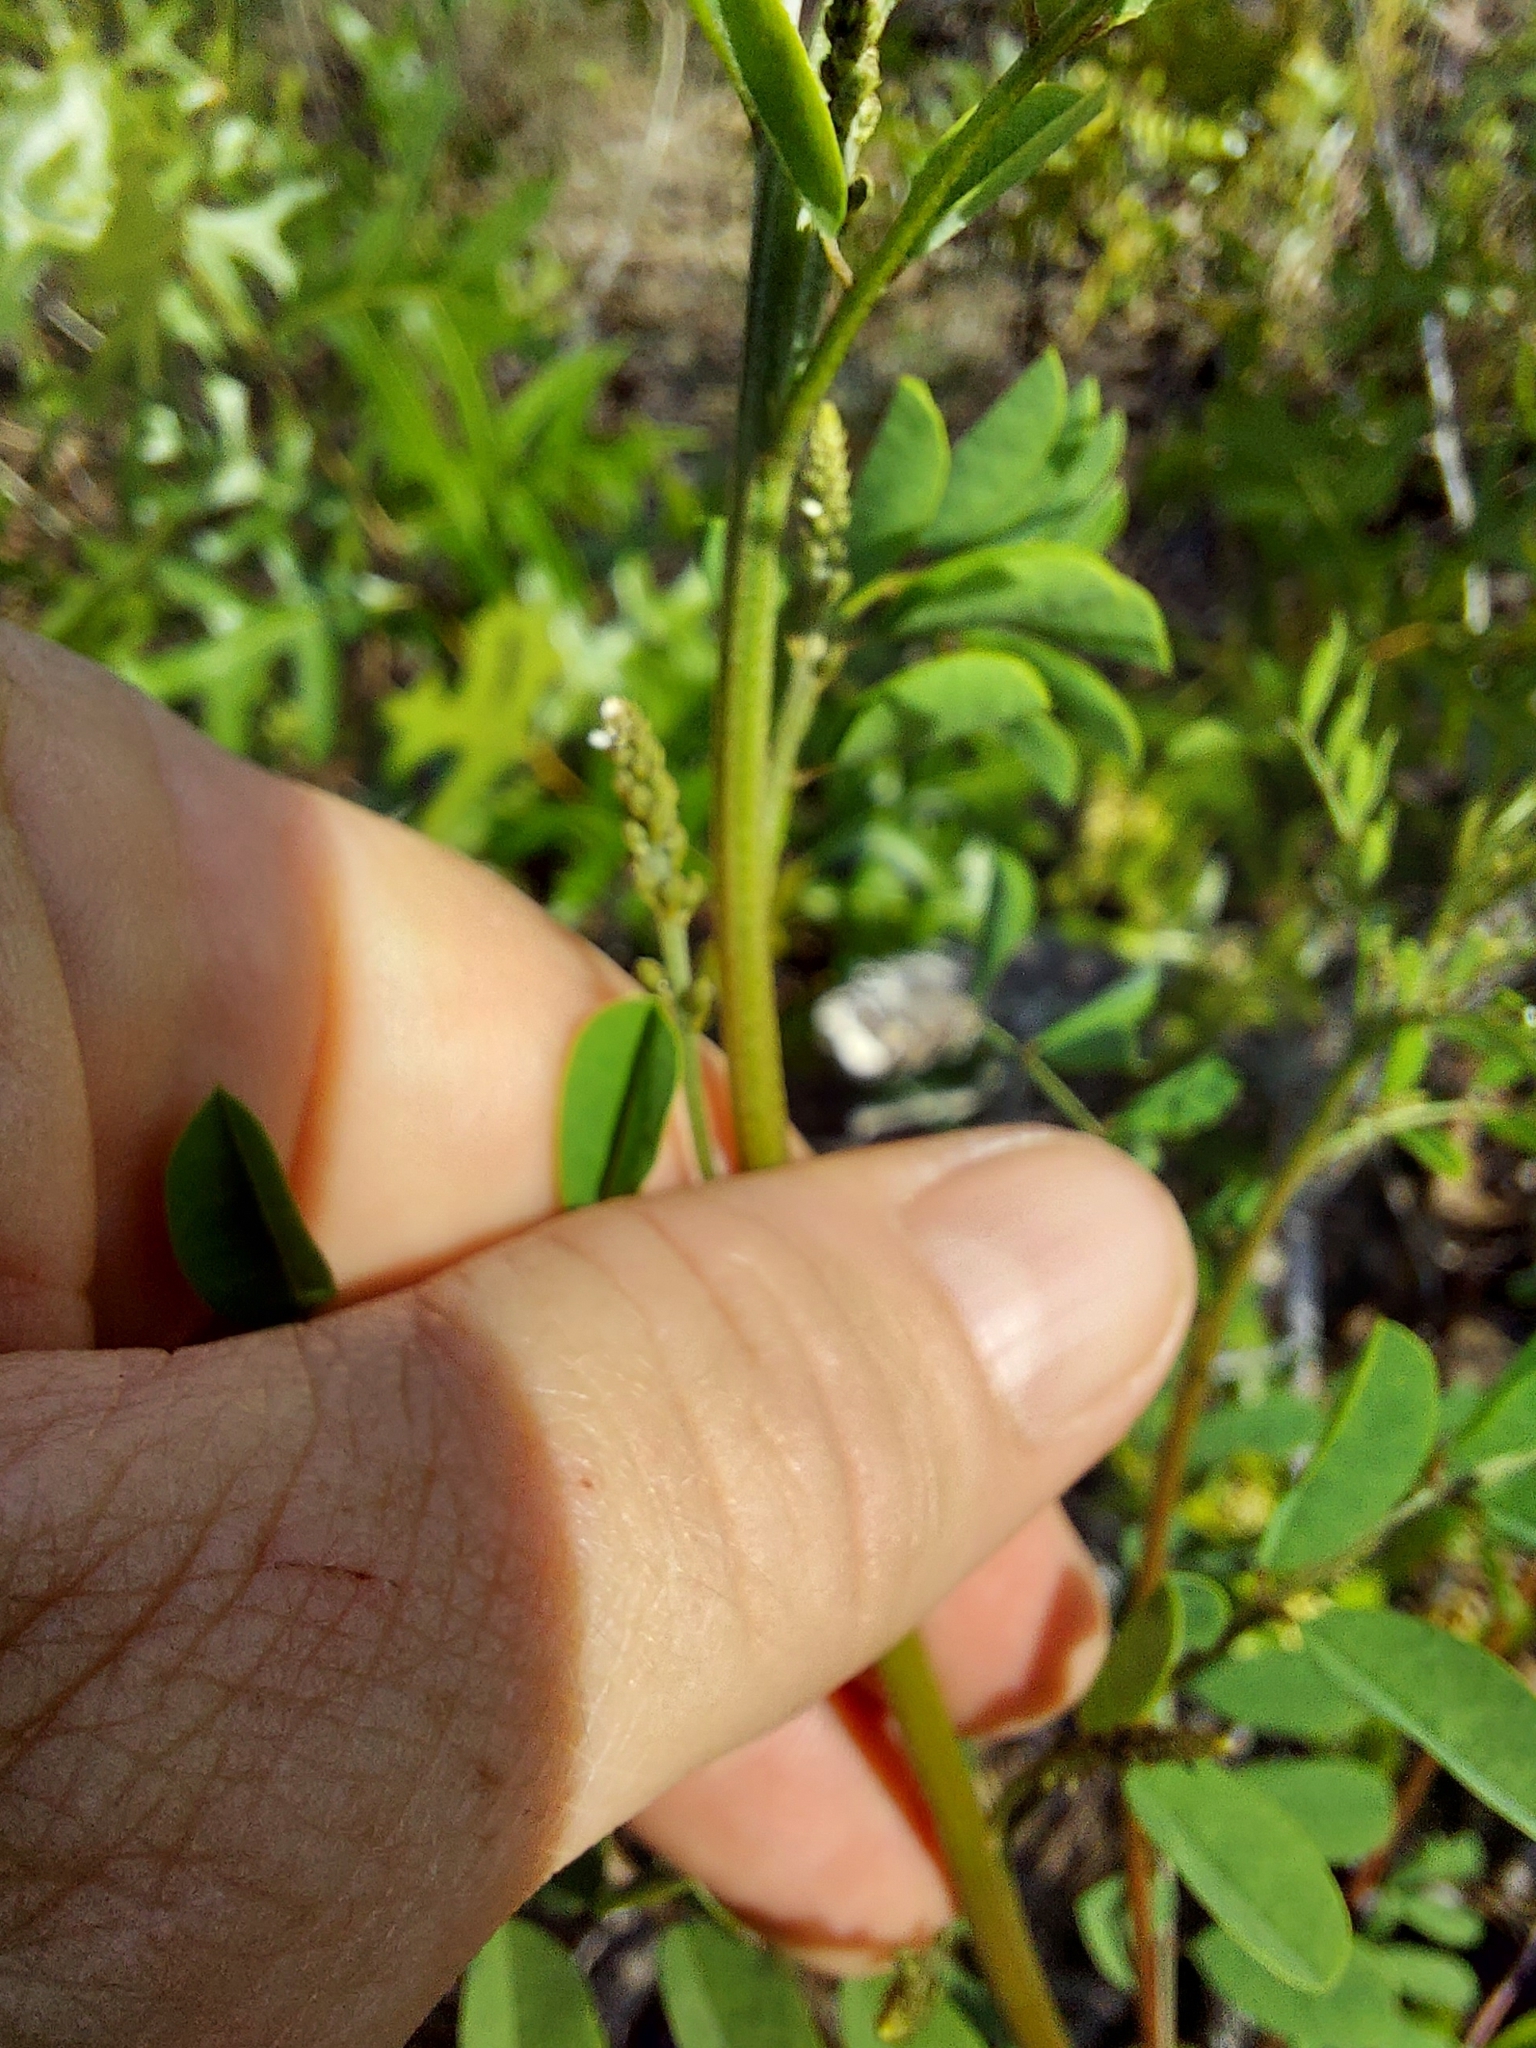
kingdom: Plantae
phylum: Tracheophyta
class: Magnoliopsida
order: Fabales
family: Fabaceae
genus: Indigofera
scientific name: Indigofera caroliniana
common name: Wild indigo
